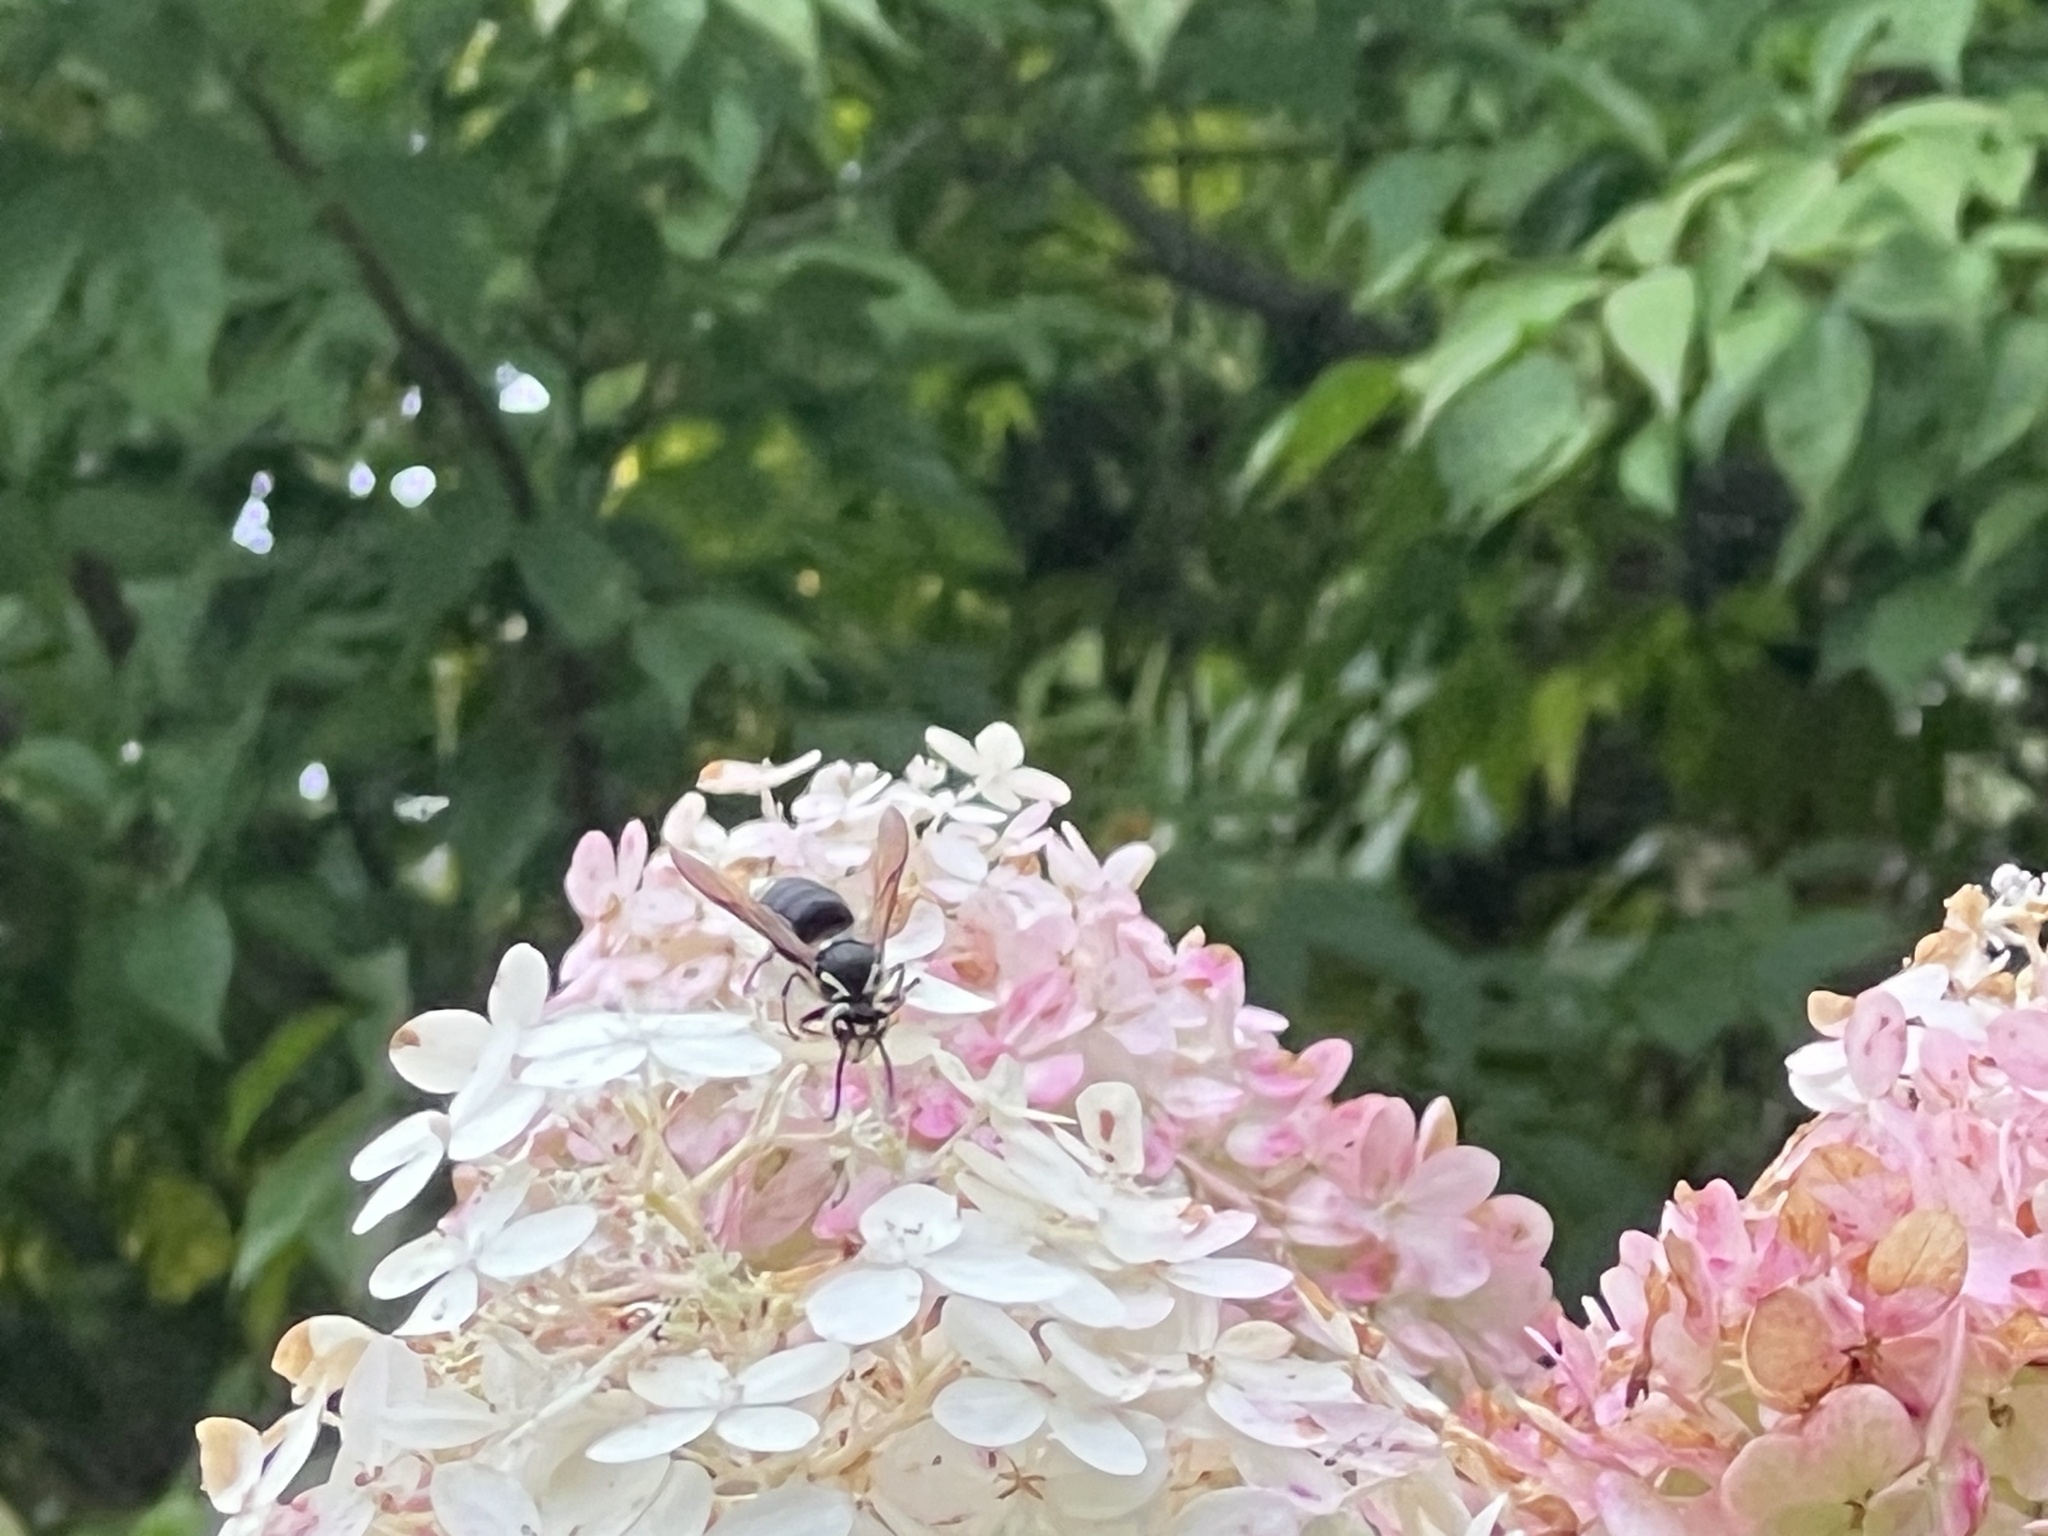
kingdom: Animalia
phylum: Arthropoda
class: Insecta
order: Hymenoptera
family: Vespidae
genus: Dolichovespula
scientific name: Dolichovespula maculata
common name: Bald-faced hornet
